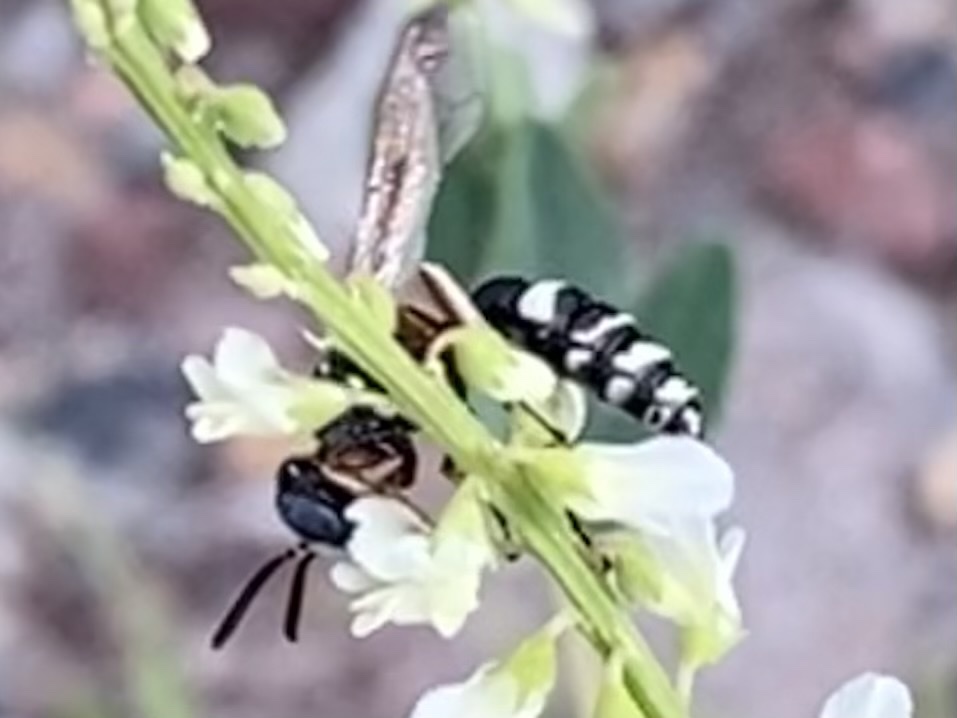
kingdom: Animalia
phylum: Arthropoda
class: Insecta
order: Hymenoptera
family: Crabronidae
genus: Philanthus
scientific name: Philanthus gibbosus
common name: Humped beewolf
